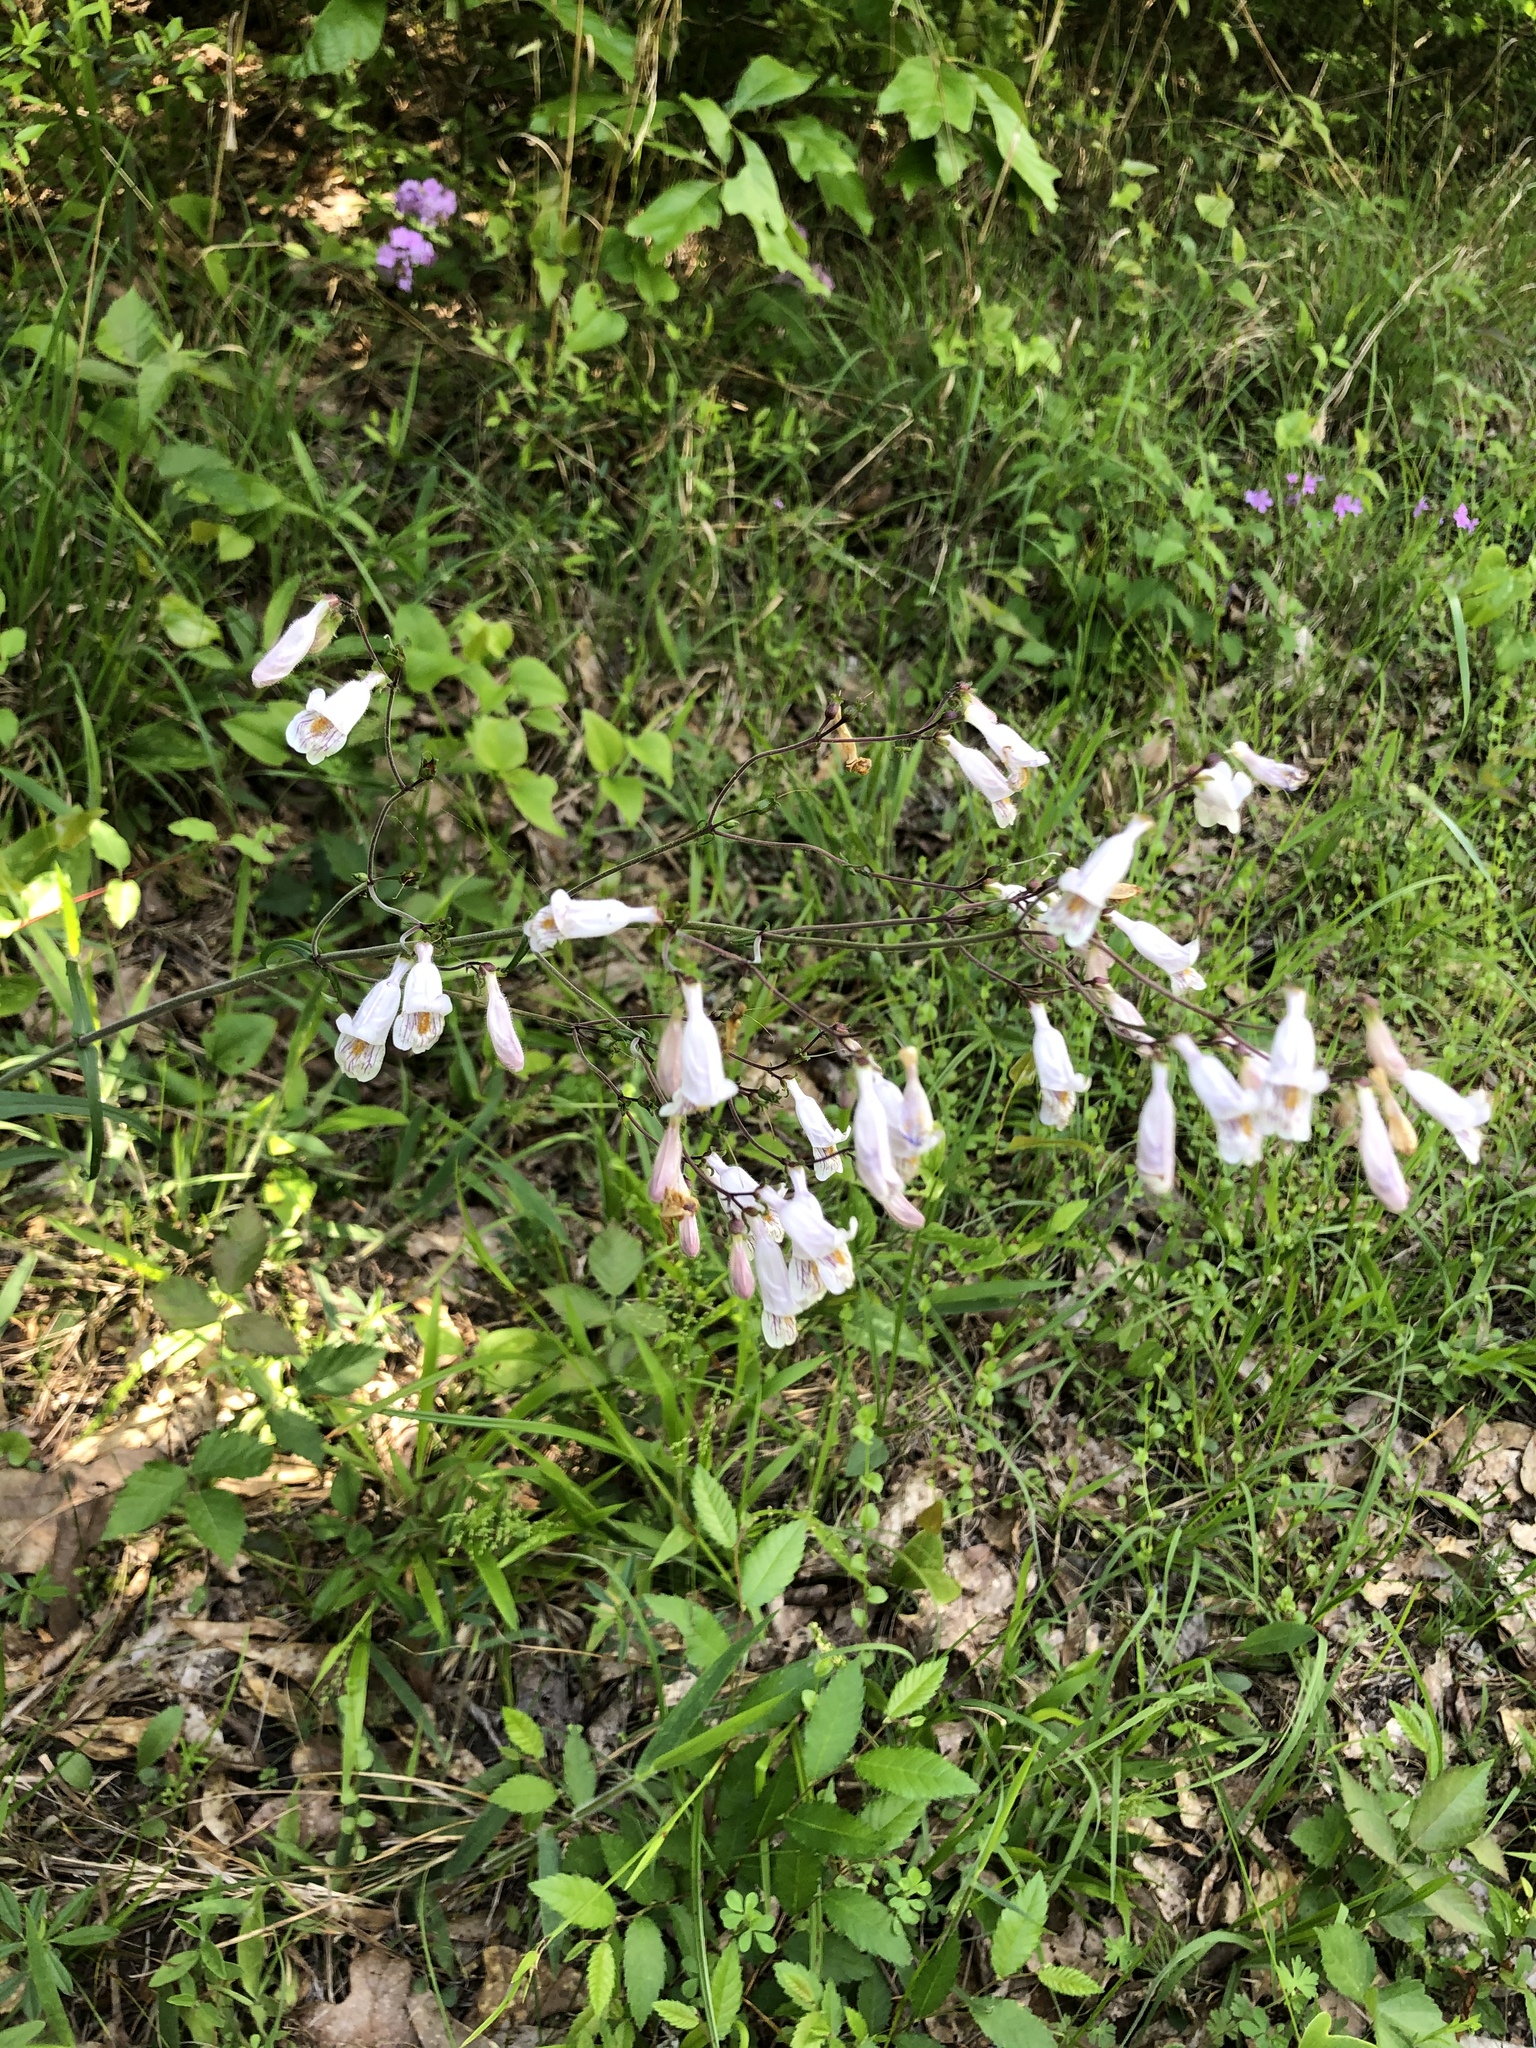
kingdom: Plantae
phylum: Tracheophyta
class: Magnoliopsida
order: Lamiales
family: Plantaginaceae
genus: Penstemon
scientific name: Penstemon laxiflorus
